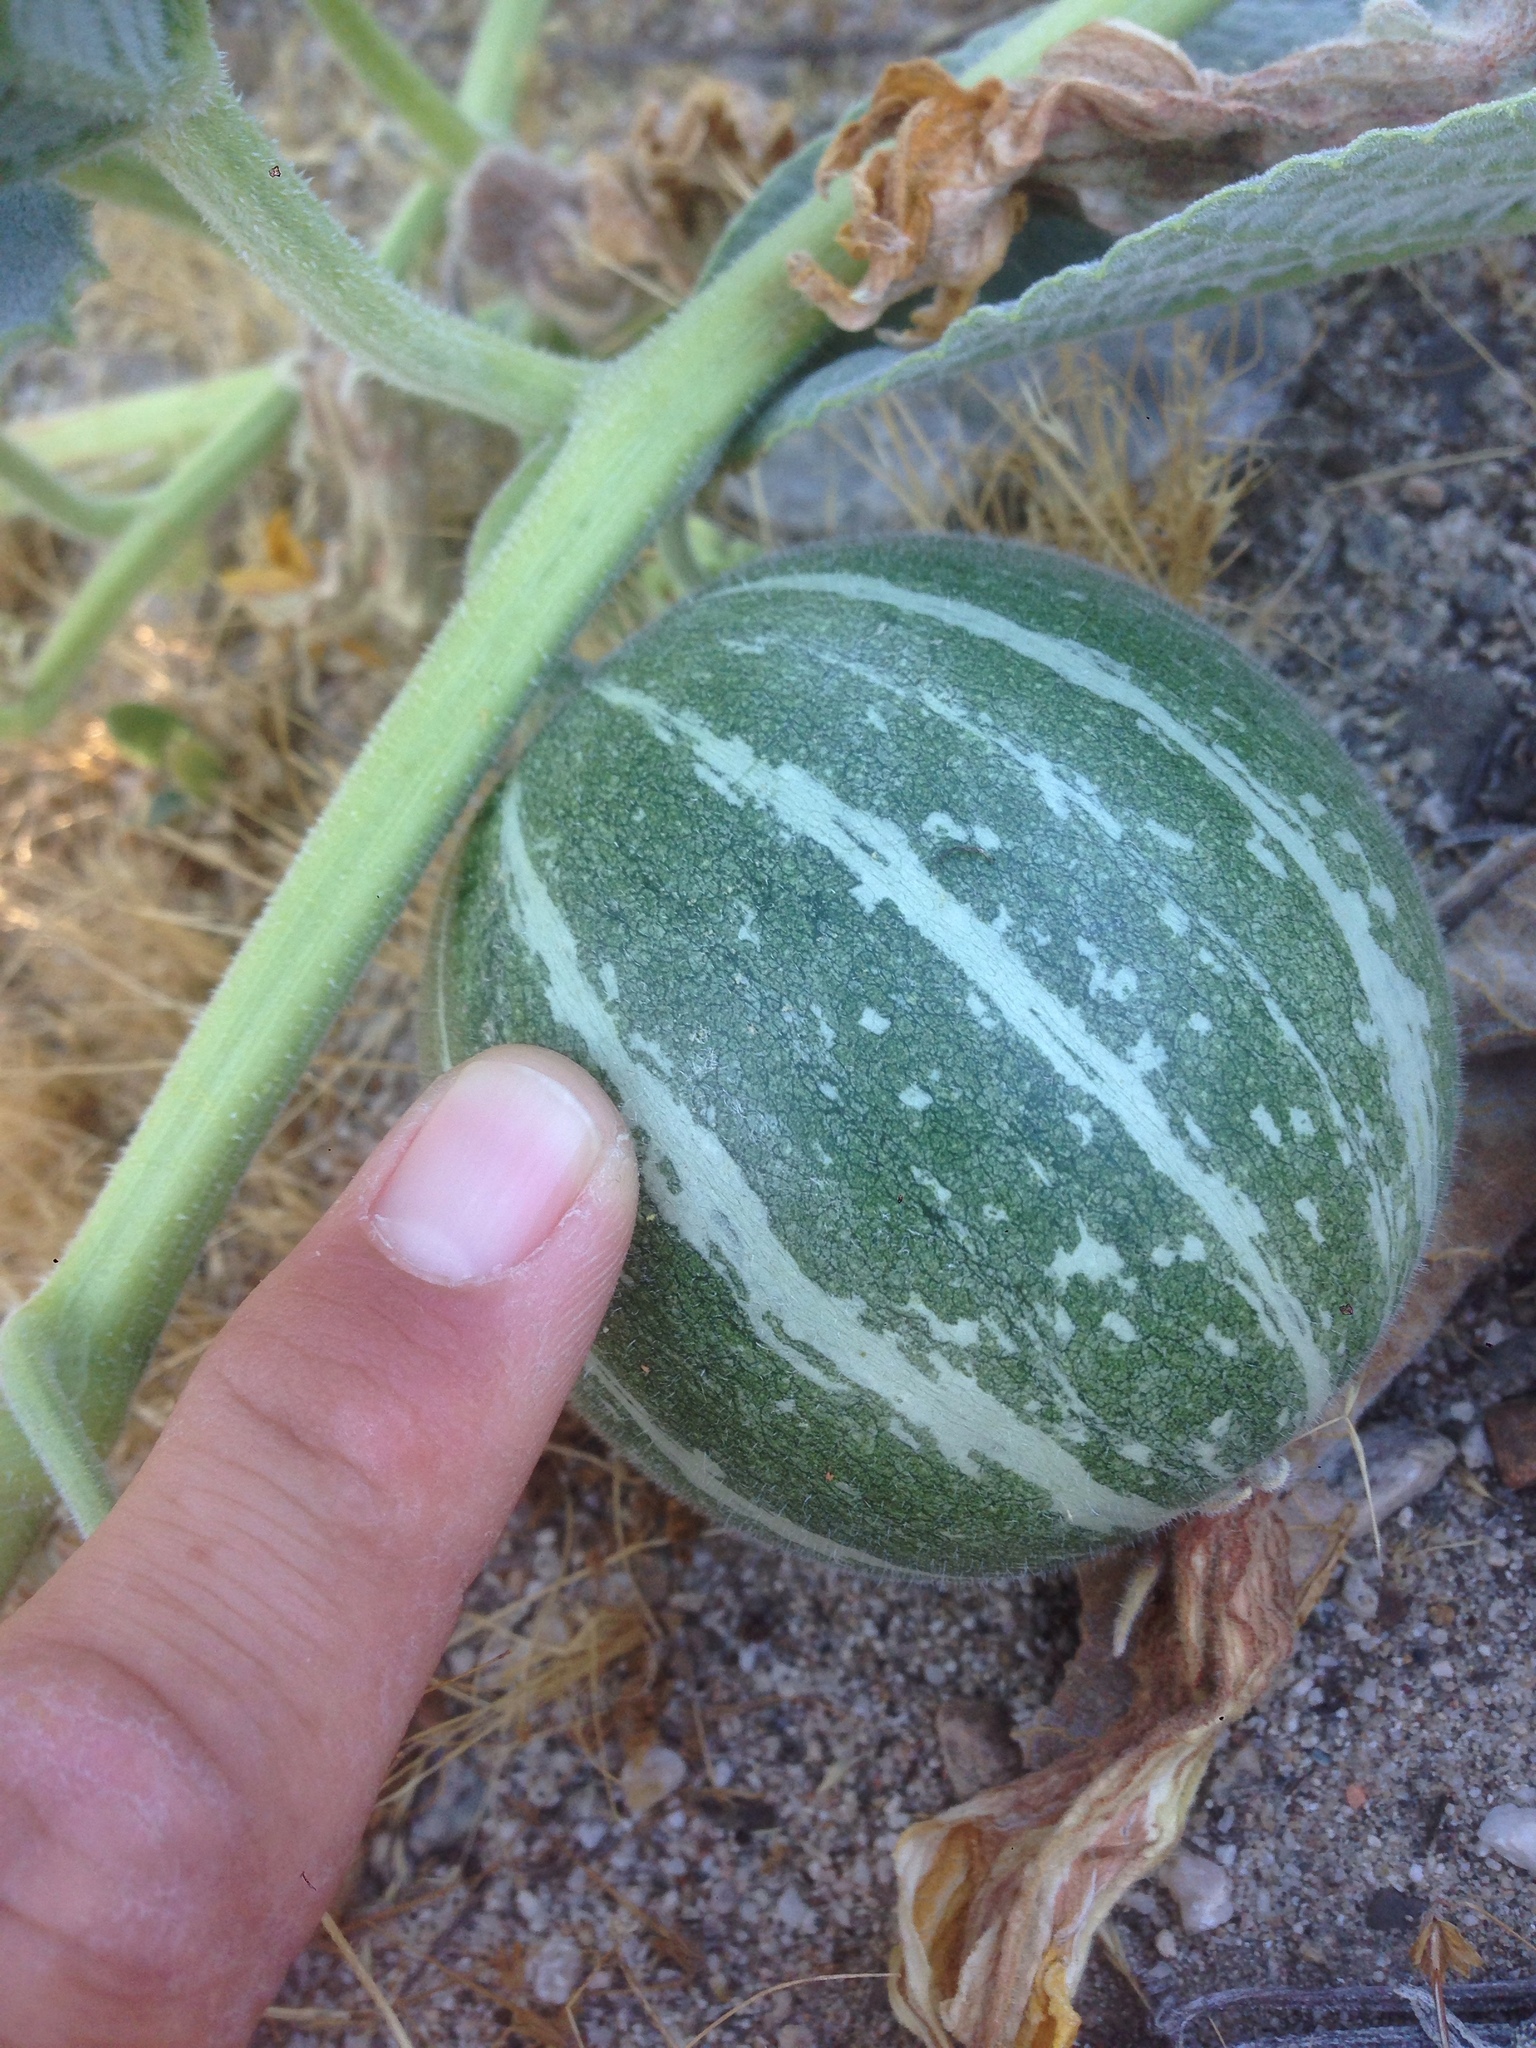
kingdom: Plantae
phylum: Tracheophyta
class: Magnoliopsida
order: Cucurbitales
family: Cucurbitaceae
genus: Cucurbita
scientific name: Cucurbita foetidissima
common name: Buffalo gourd
